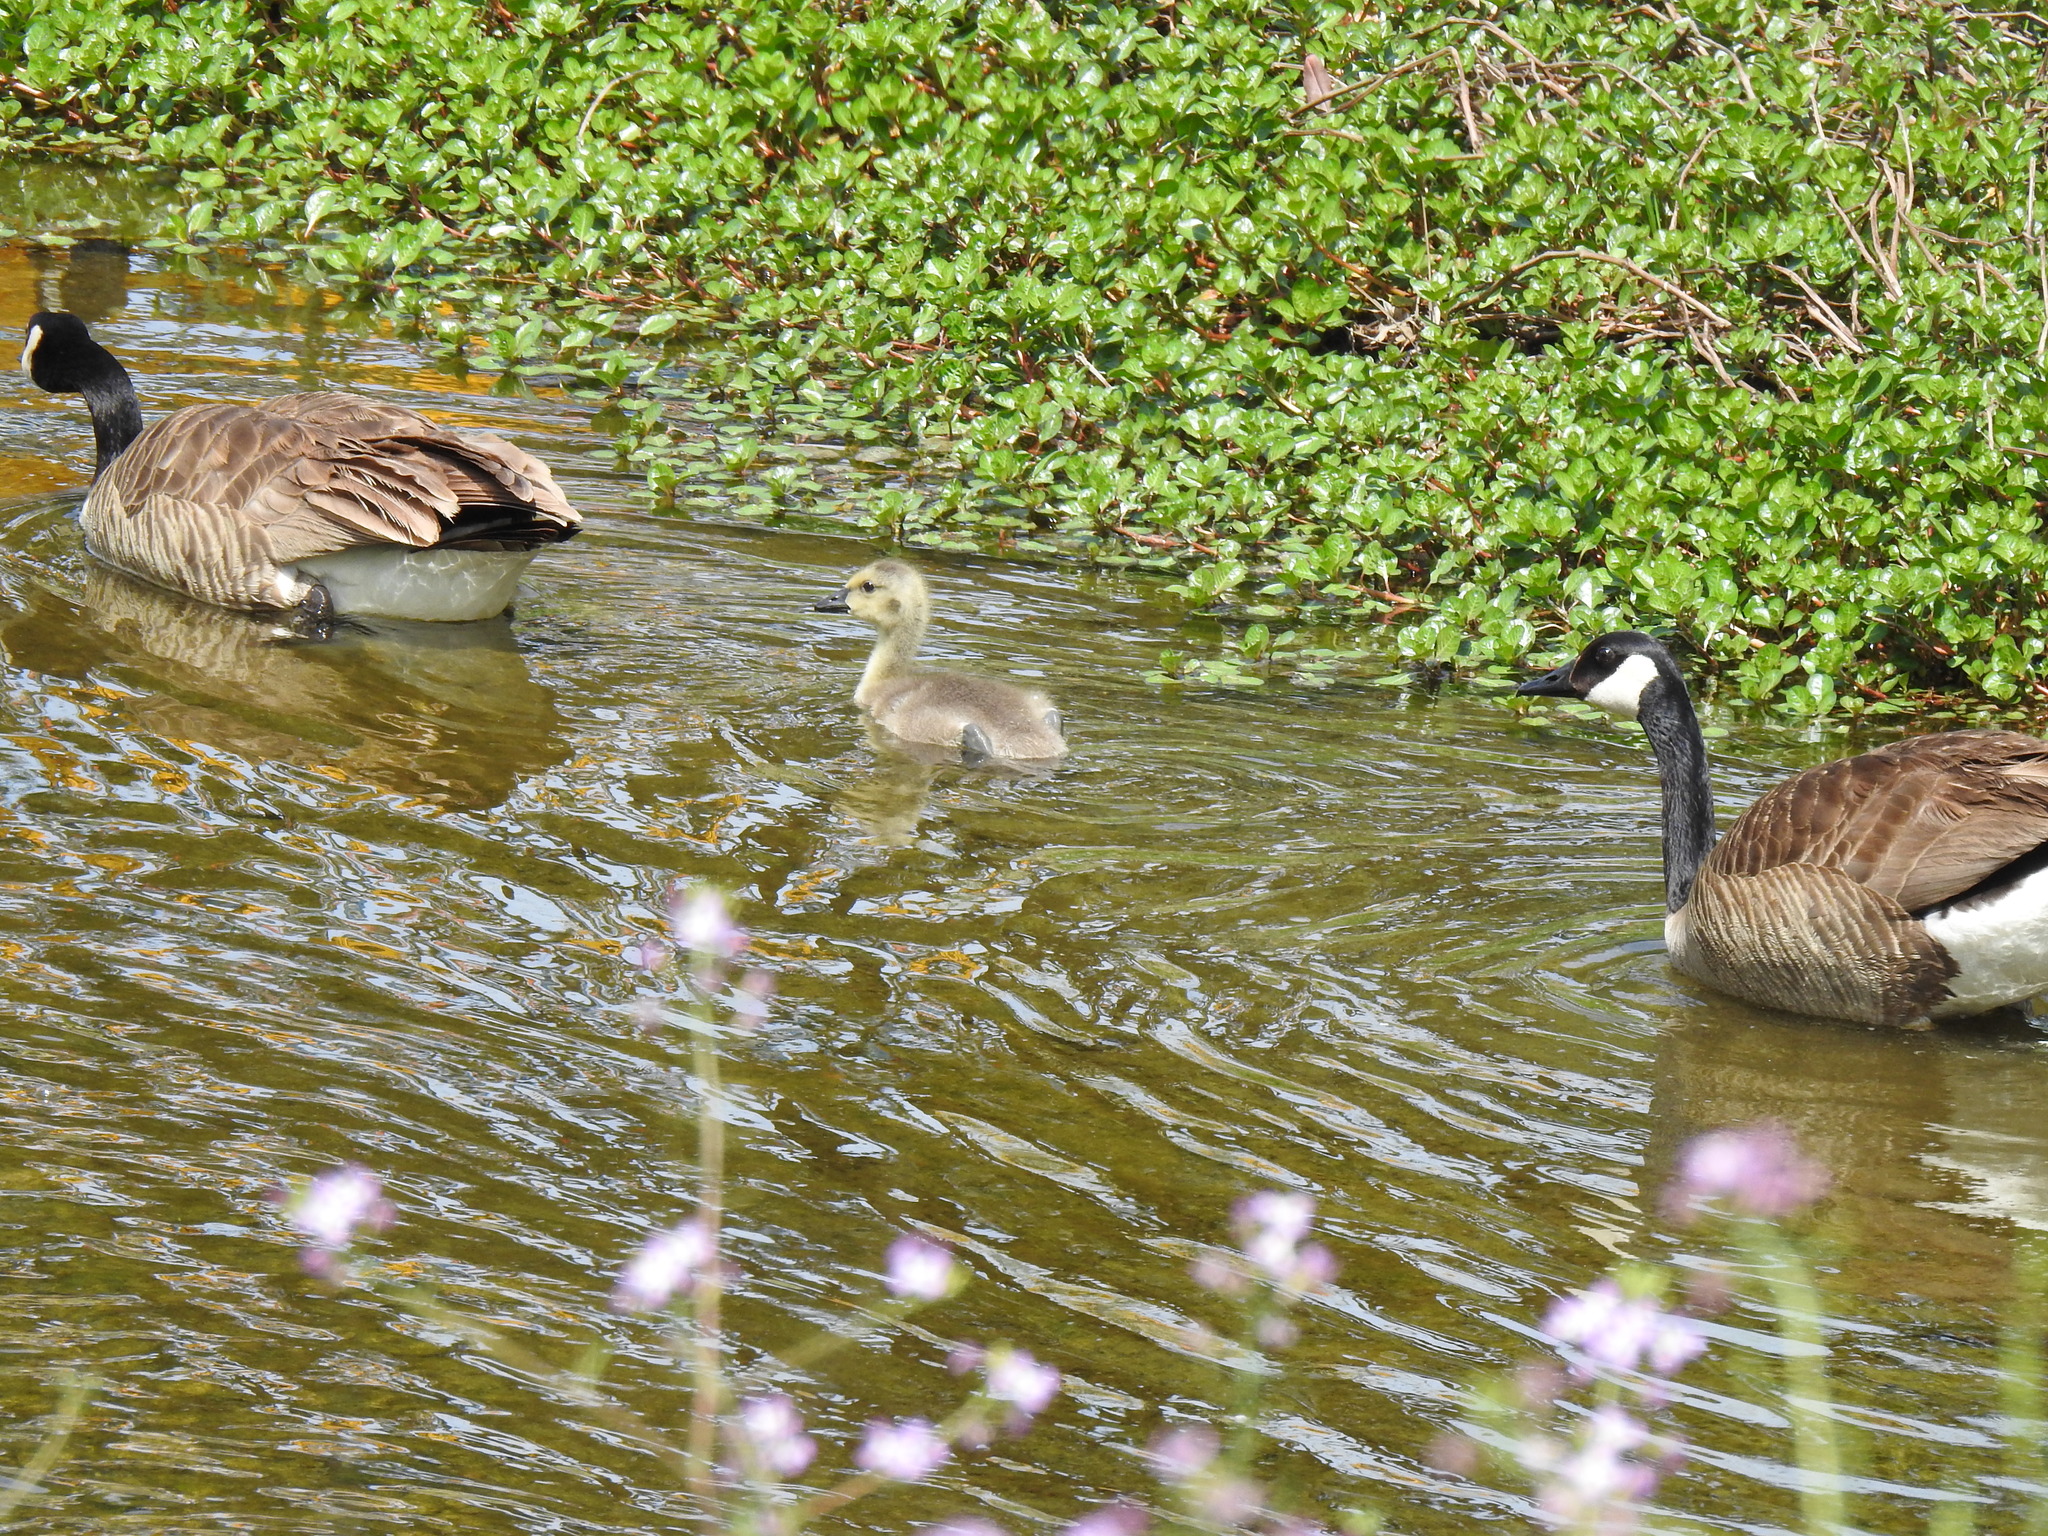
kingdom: Animalia
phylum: Chordata
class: Aves
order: Anseriformes
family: Anatidae
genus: Branta
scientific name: Branta canadensis
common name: Canada goose
